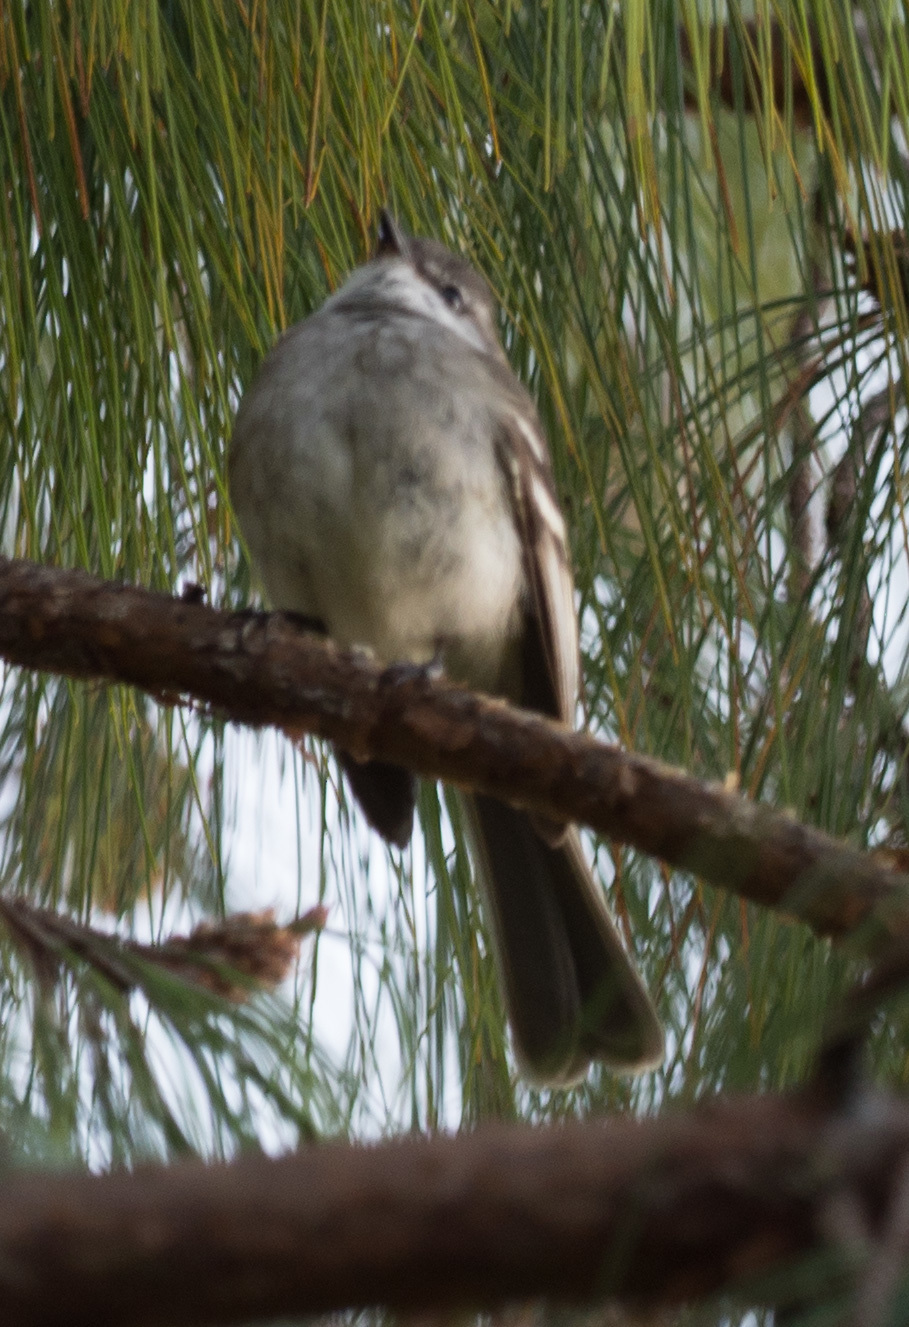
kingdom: Animalia
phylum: Chordata
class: Aves
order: Passeriformes
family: Tyrannidae
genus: Mecocerculus
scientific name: Mecocerculus leucophrys
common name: White-throated tyrannulet
